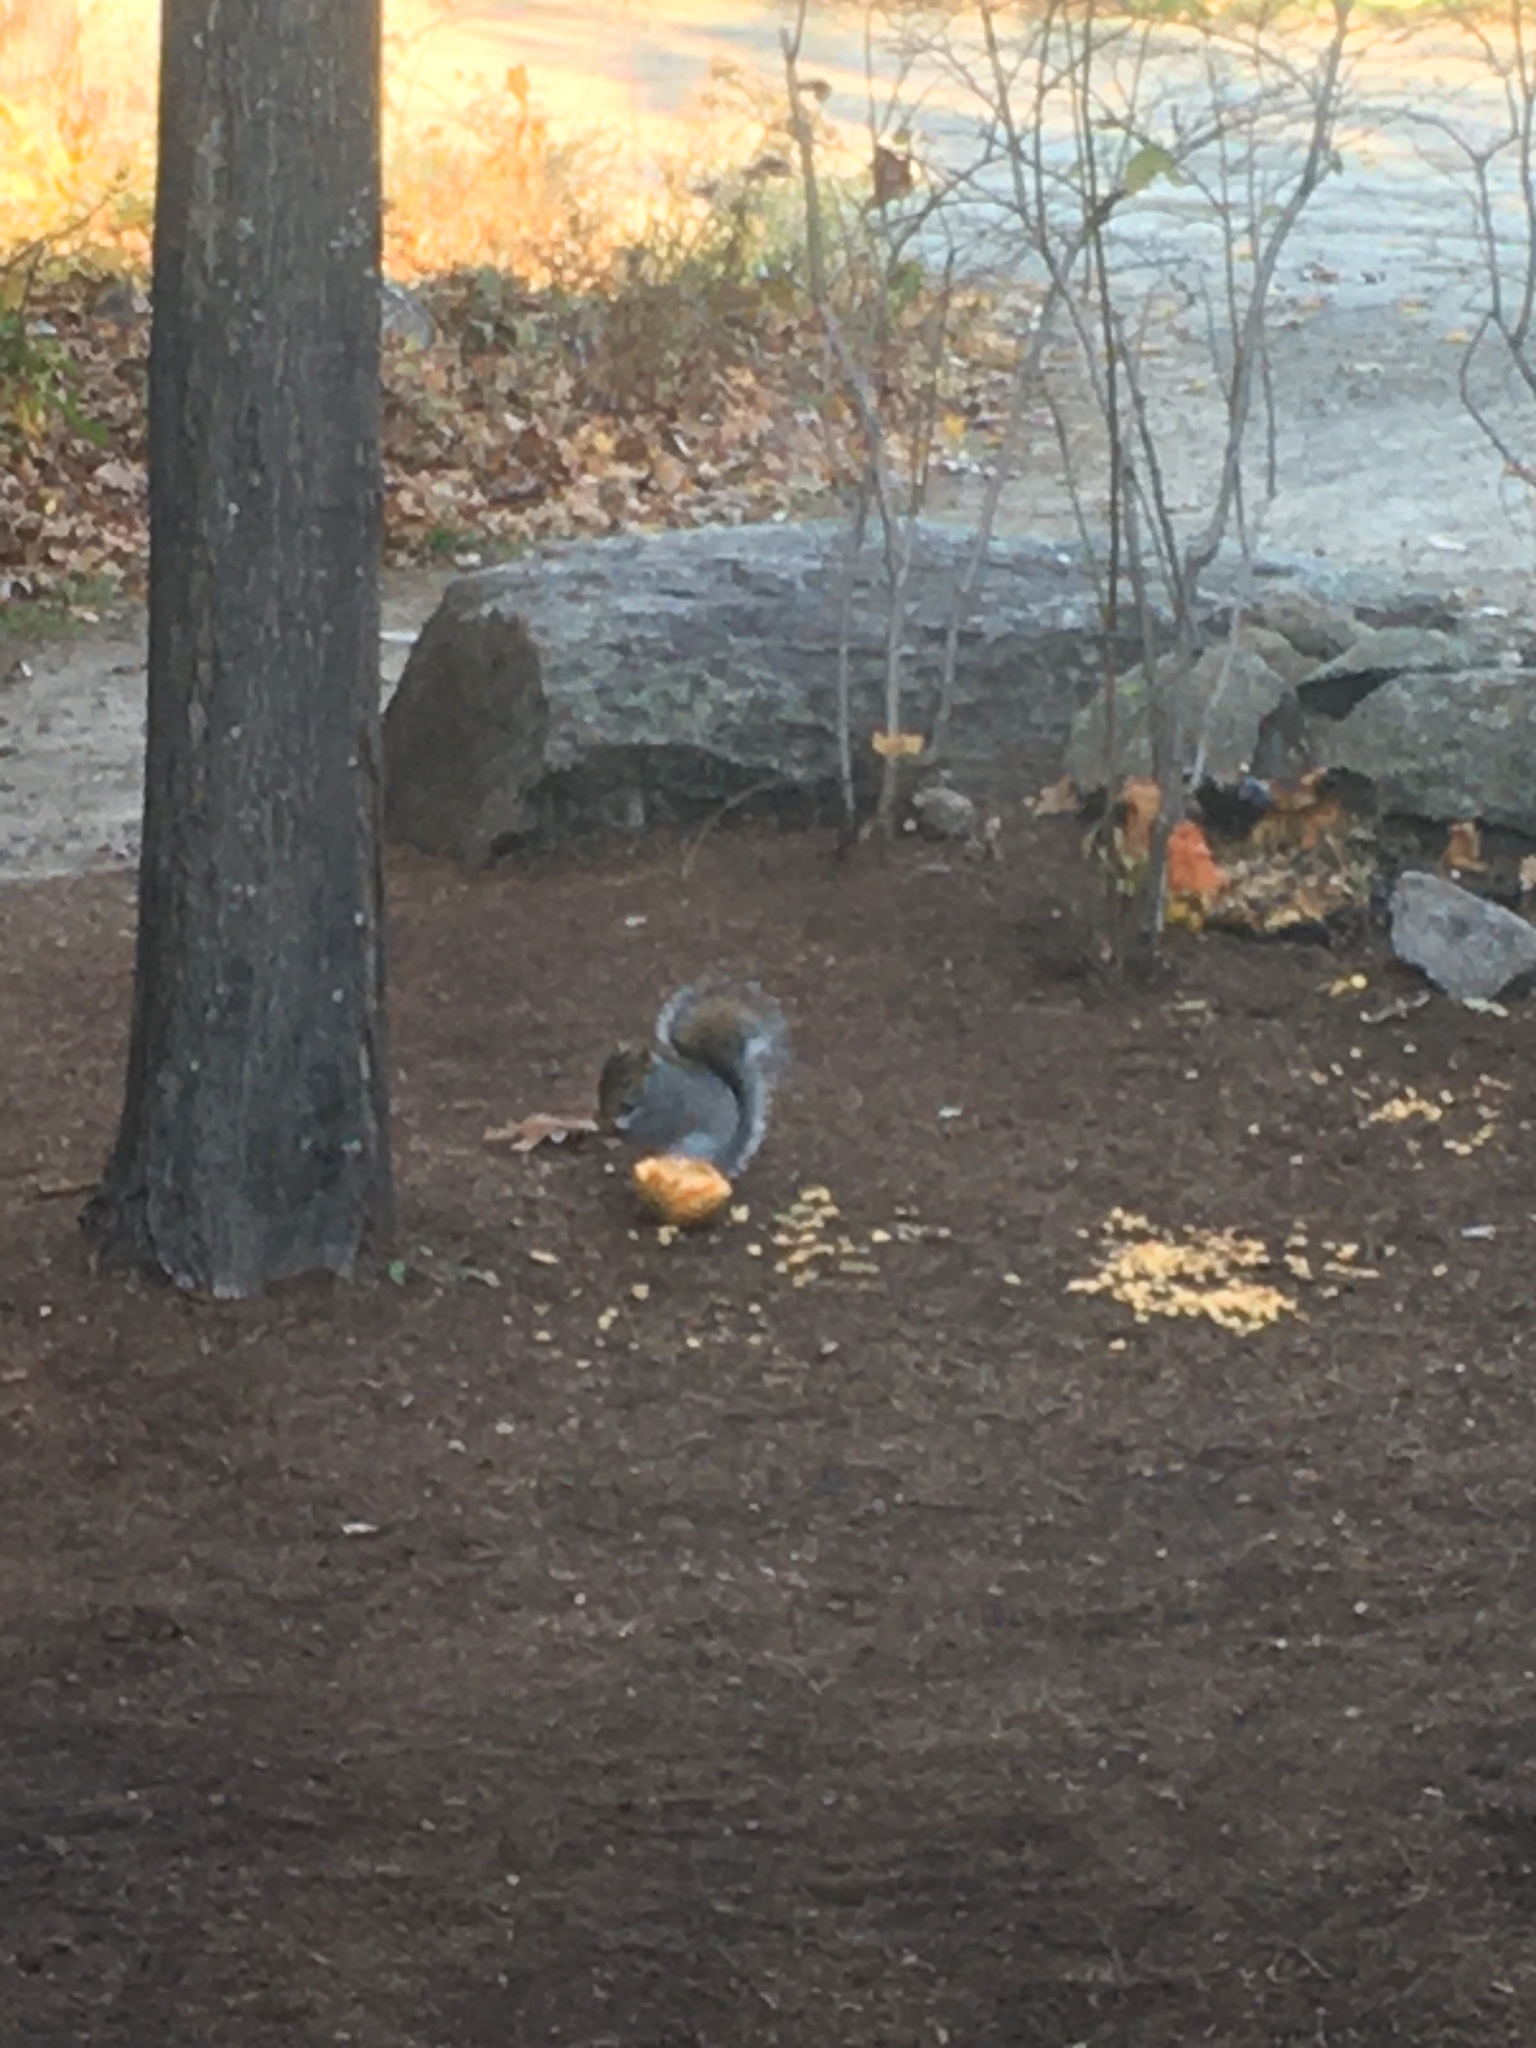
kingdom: Animalia
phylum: Chordata
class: Mammalia
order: Rodentia
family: Sciuridae
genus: Sciurus
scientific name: Sciurus carolinensis
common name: Eastern gray squirrel
